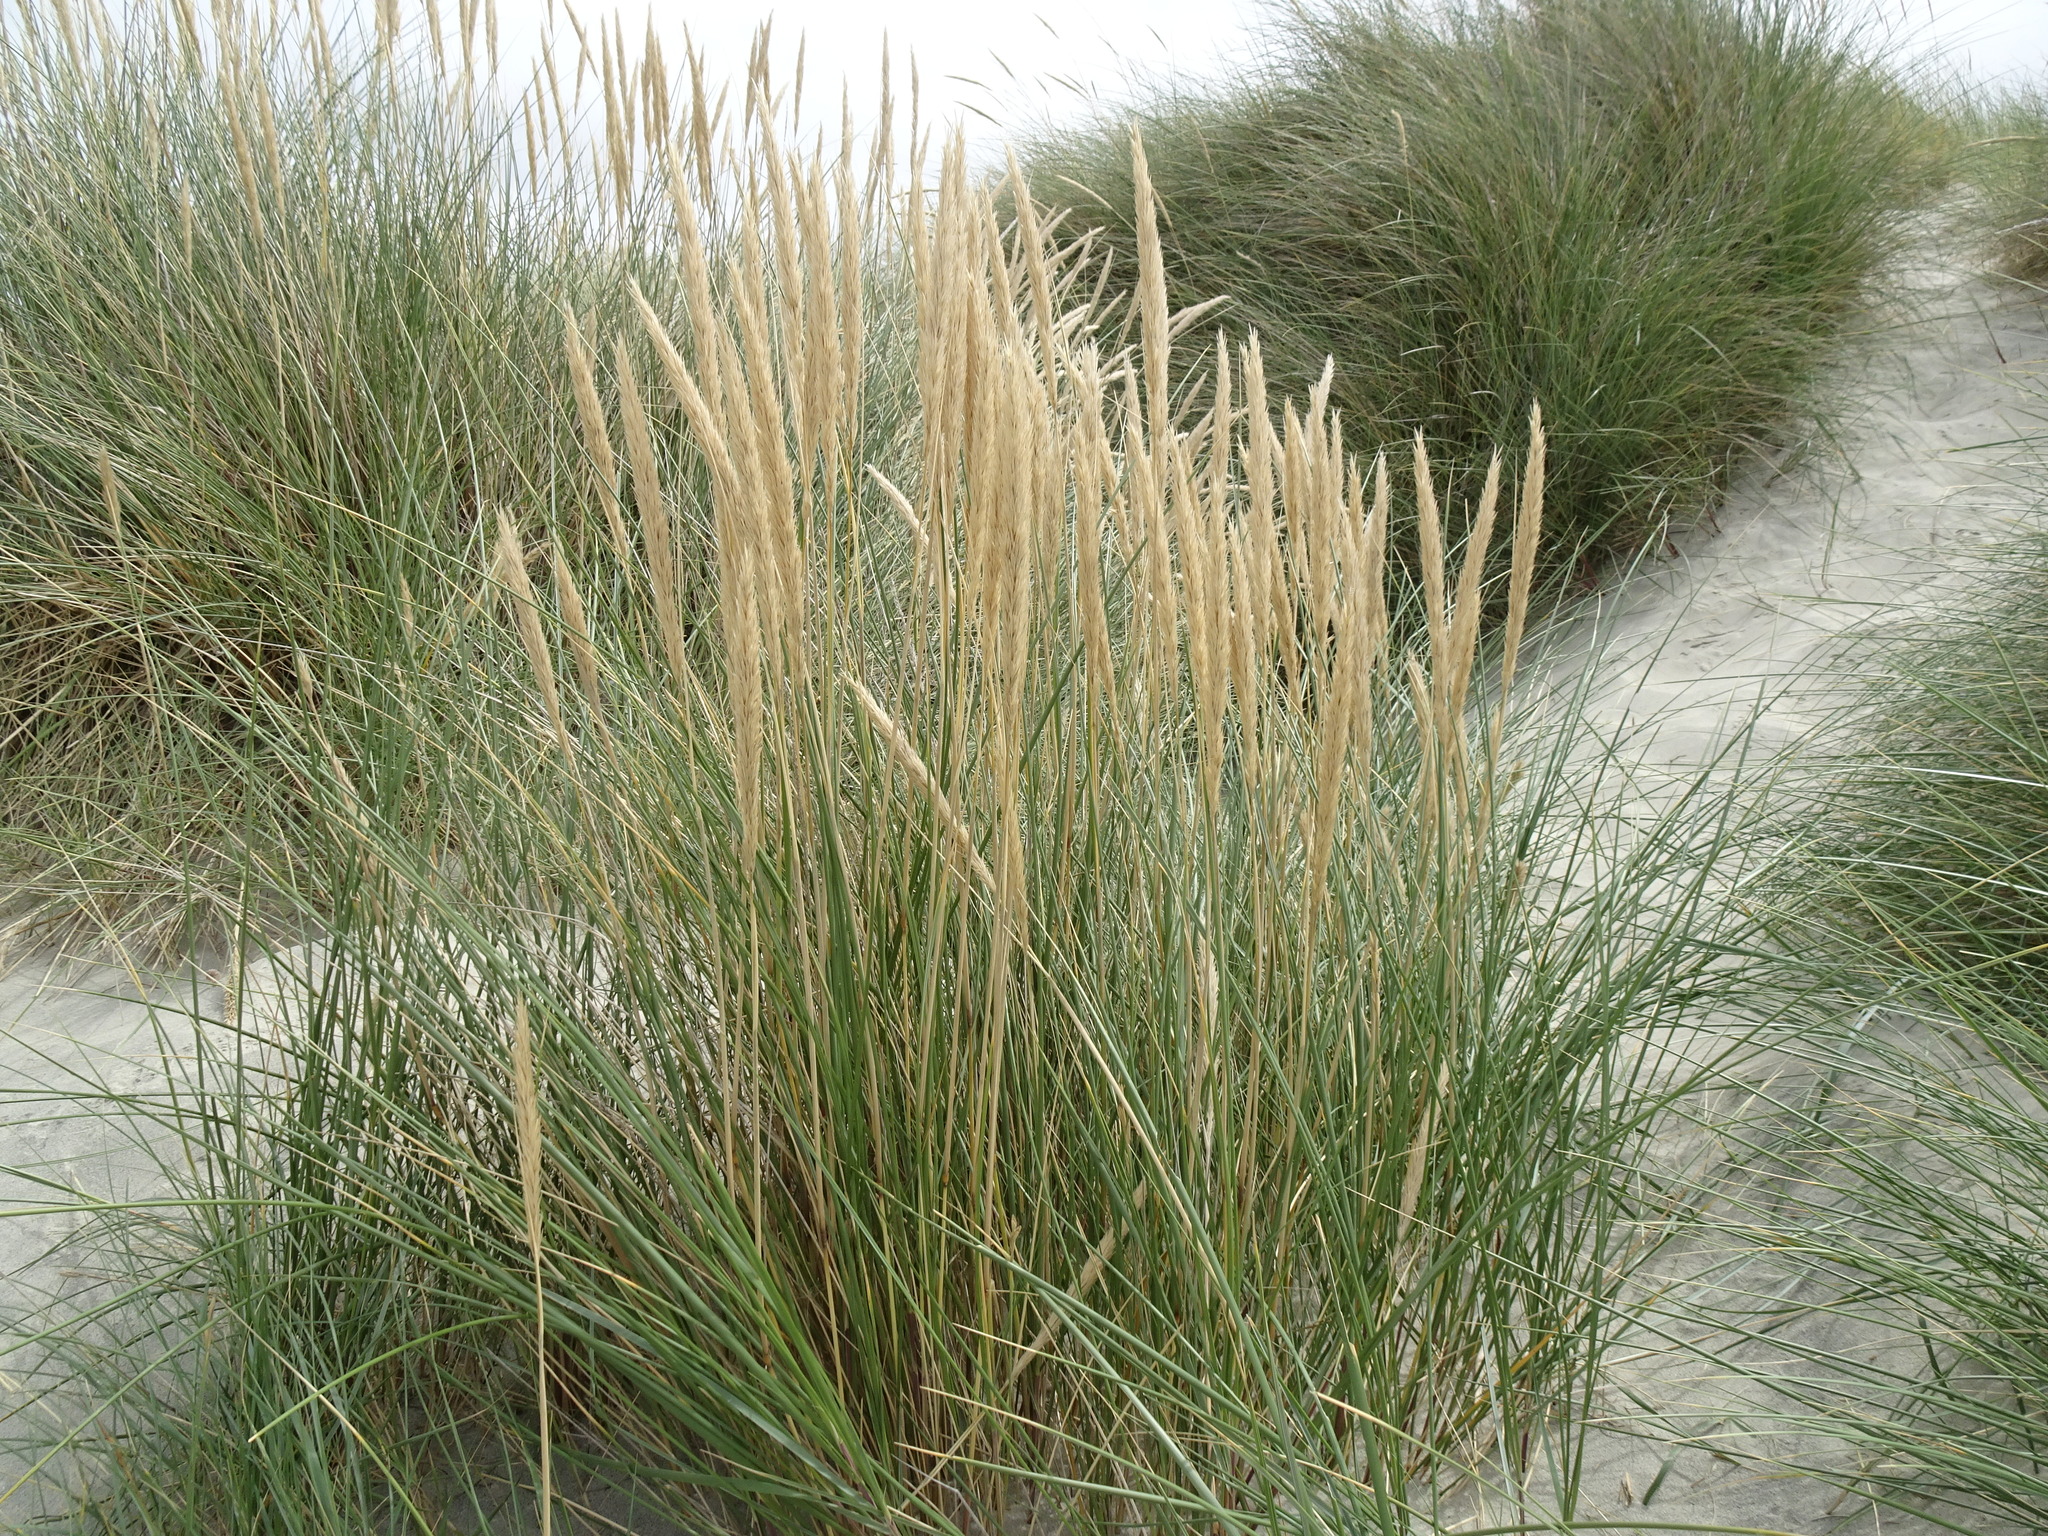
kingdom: Plantae
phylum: Tracheophyta
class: Liliopsida
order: Poales
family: Poaceae
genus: Calamagrostis
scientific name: Calamagrostis arenaria
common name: European beachgrass
